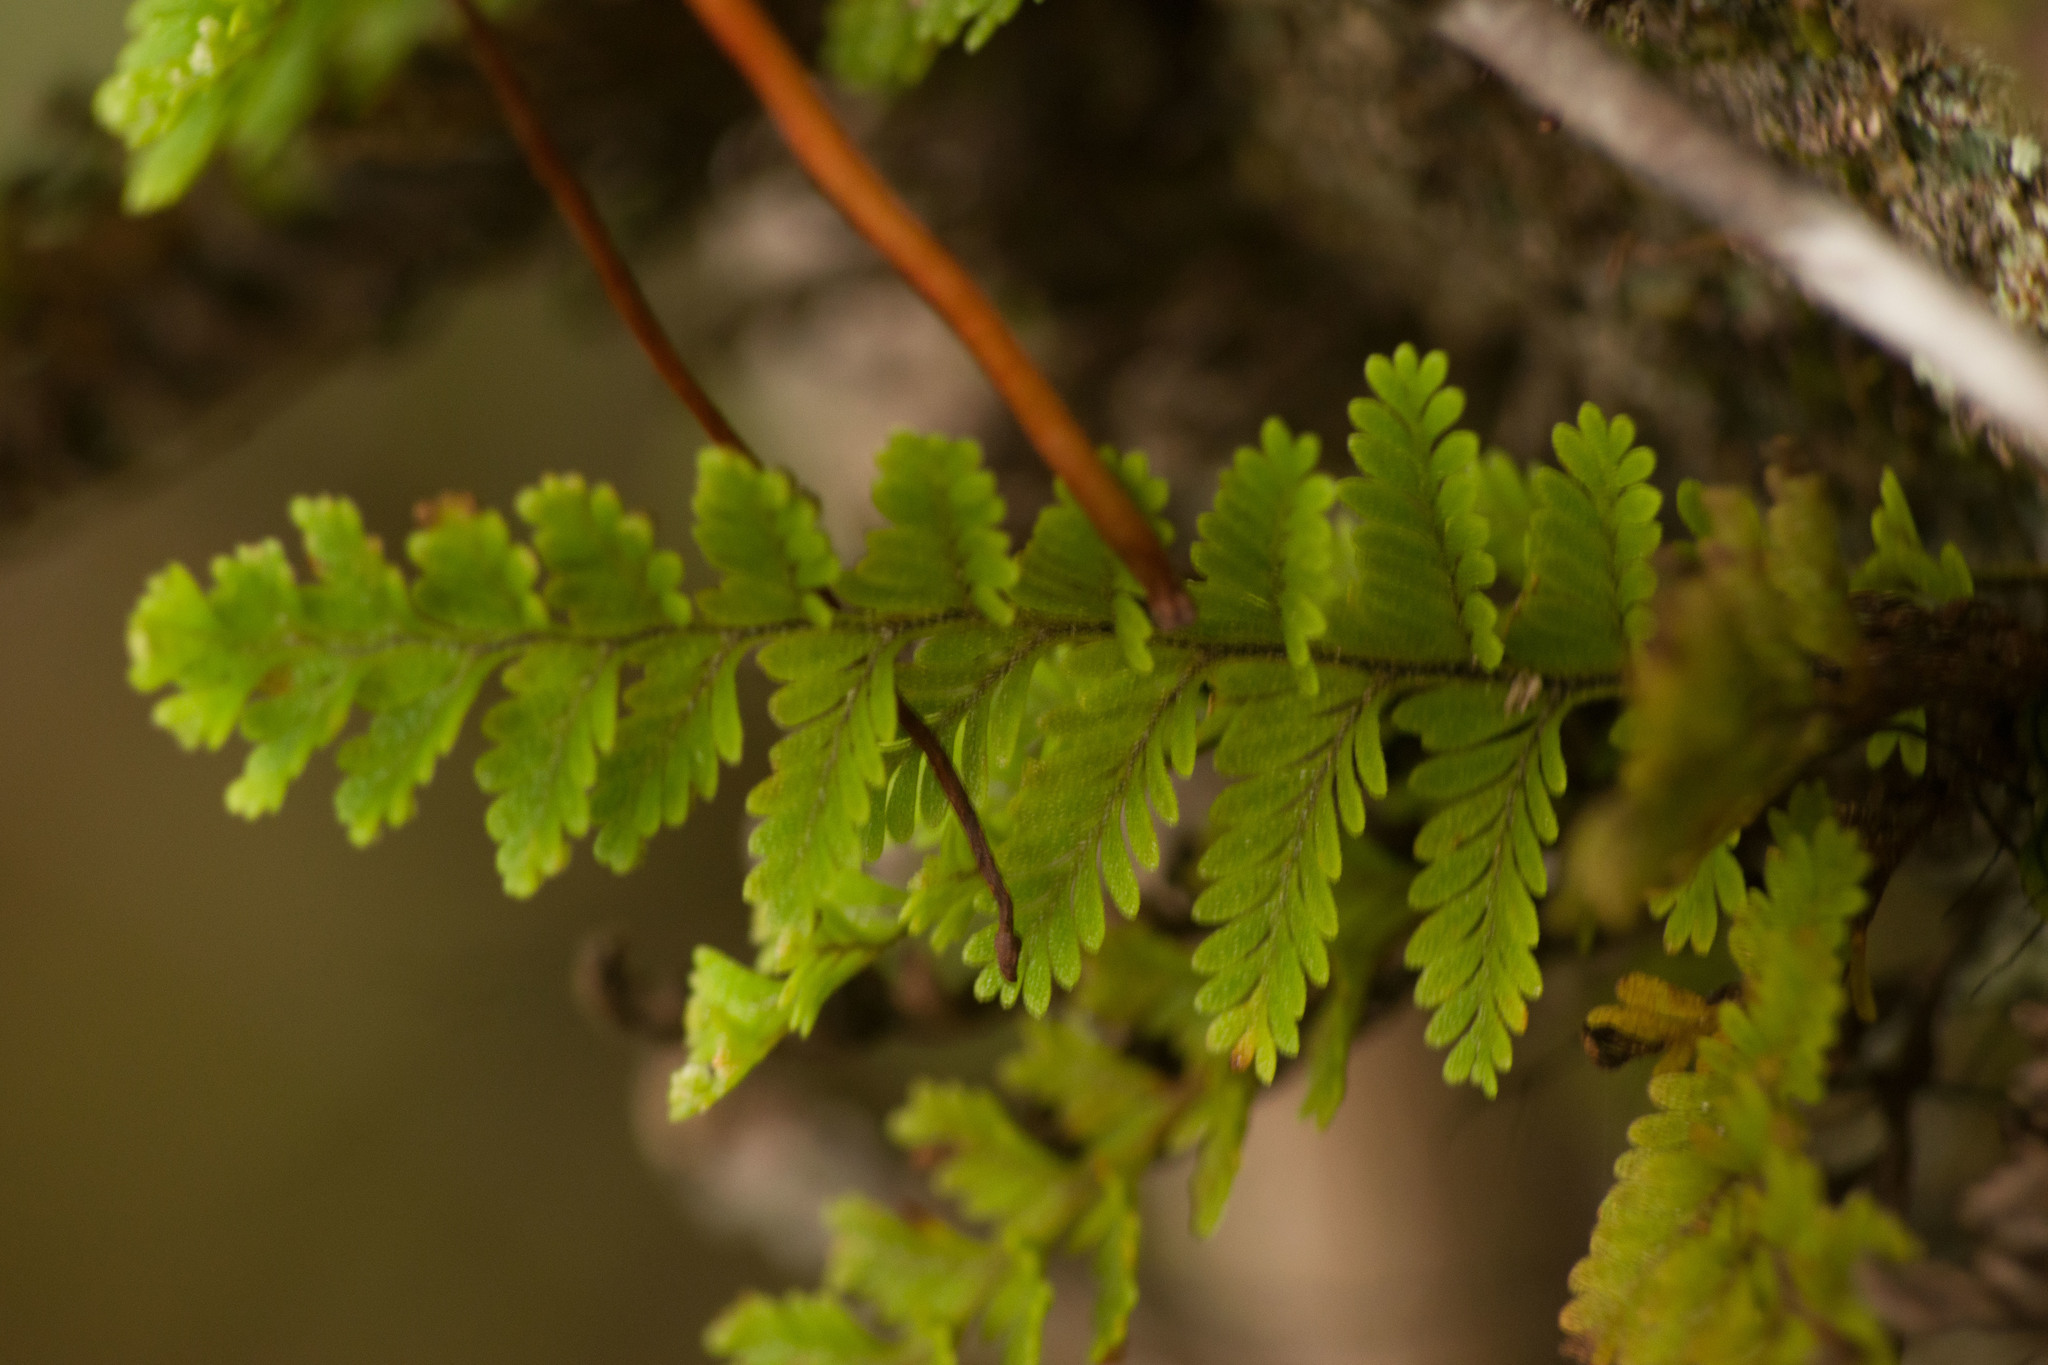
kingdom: Plantae
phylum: Tracheophyta
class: Polypodiopsida
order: Polypodiales
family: Polypodiaceae
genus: Adenophorus
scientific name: Adenophorus tamariscinus
